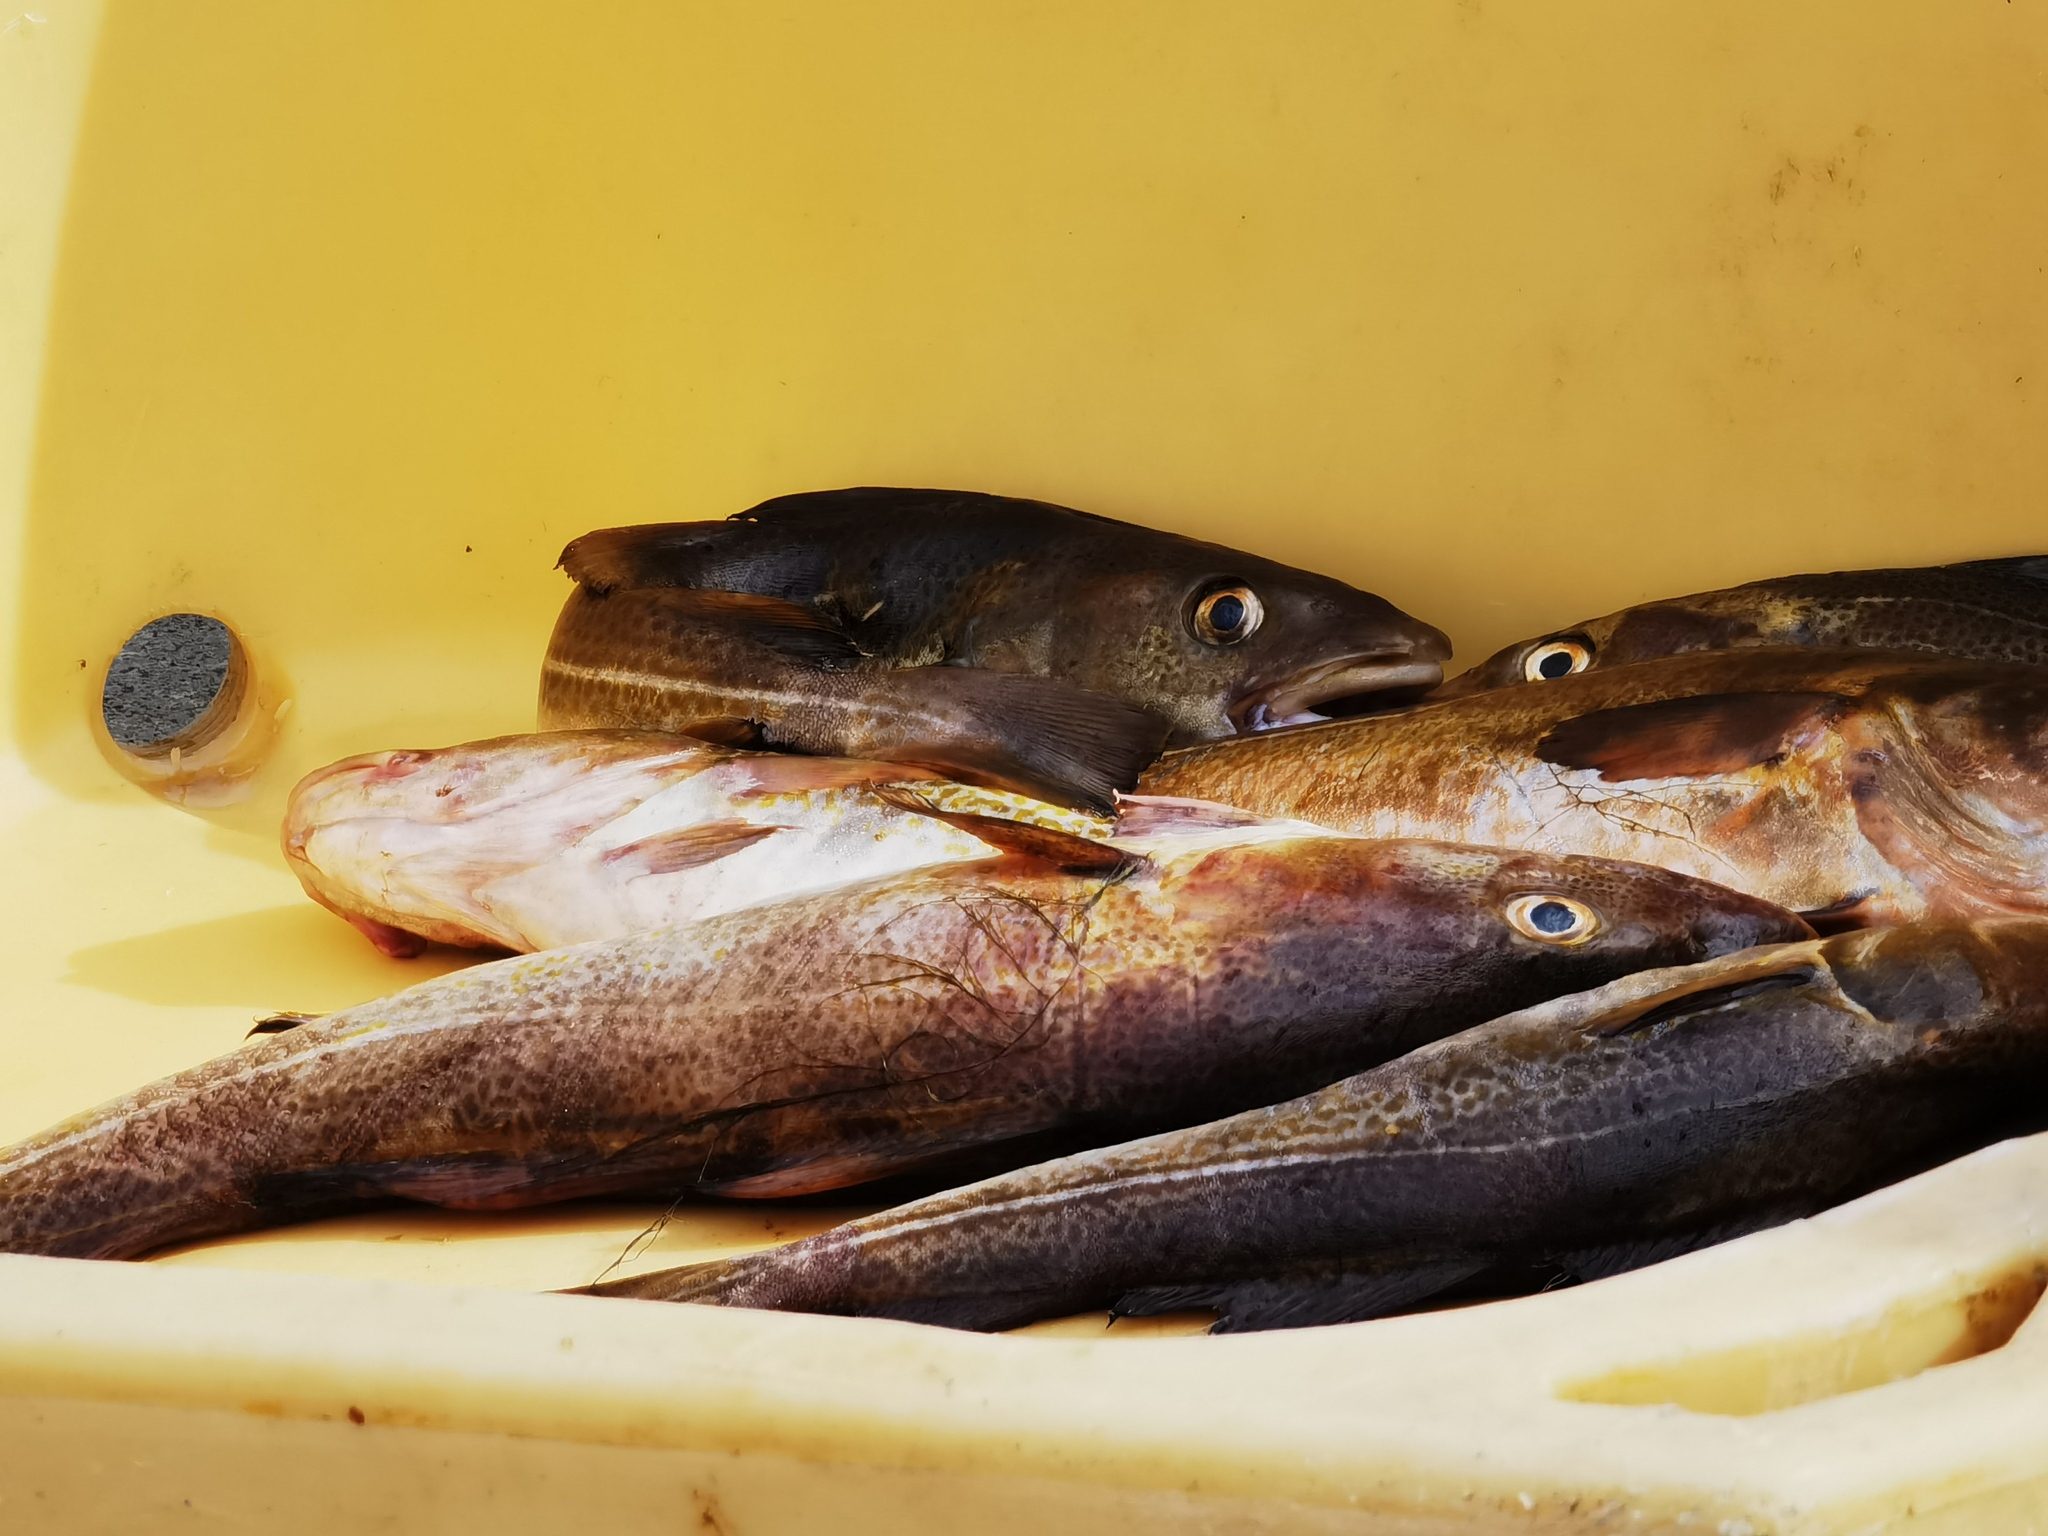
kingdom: Animalia
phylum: Chordata
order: Gadiformes
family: Gadidae
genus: Gadus
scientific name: Gadus morhua
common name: Atlantic cod
